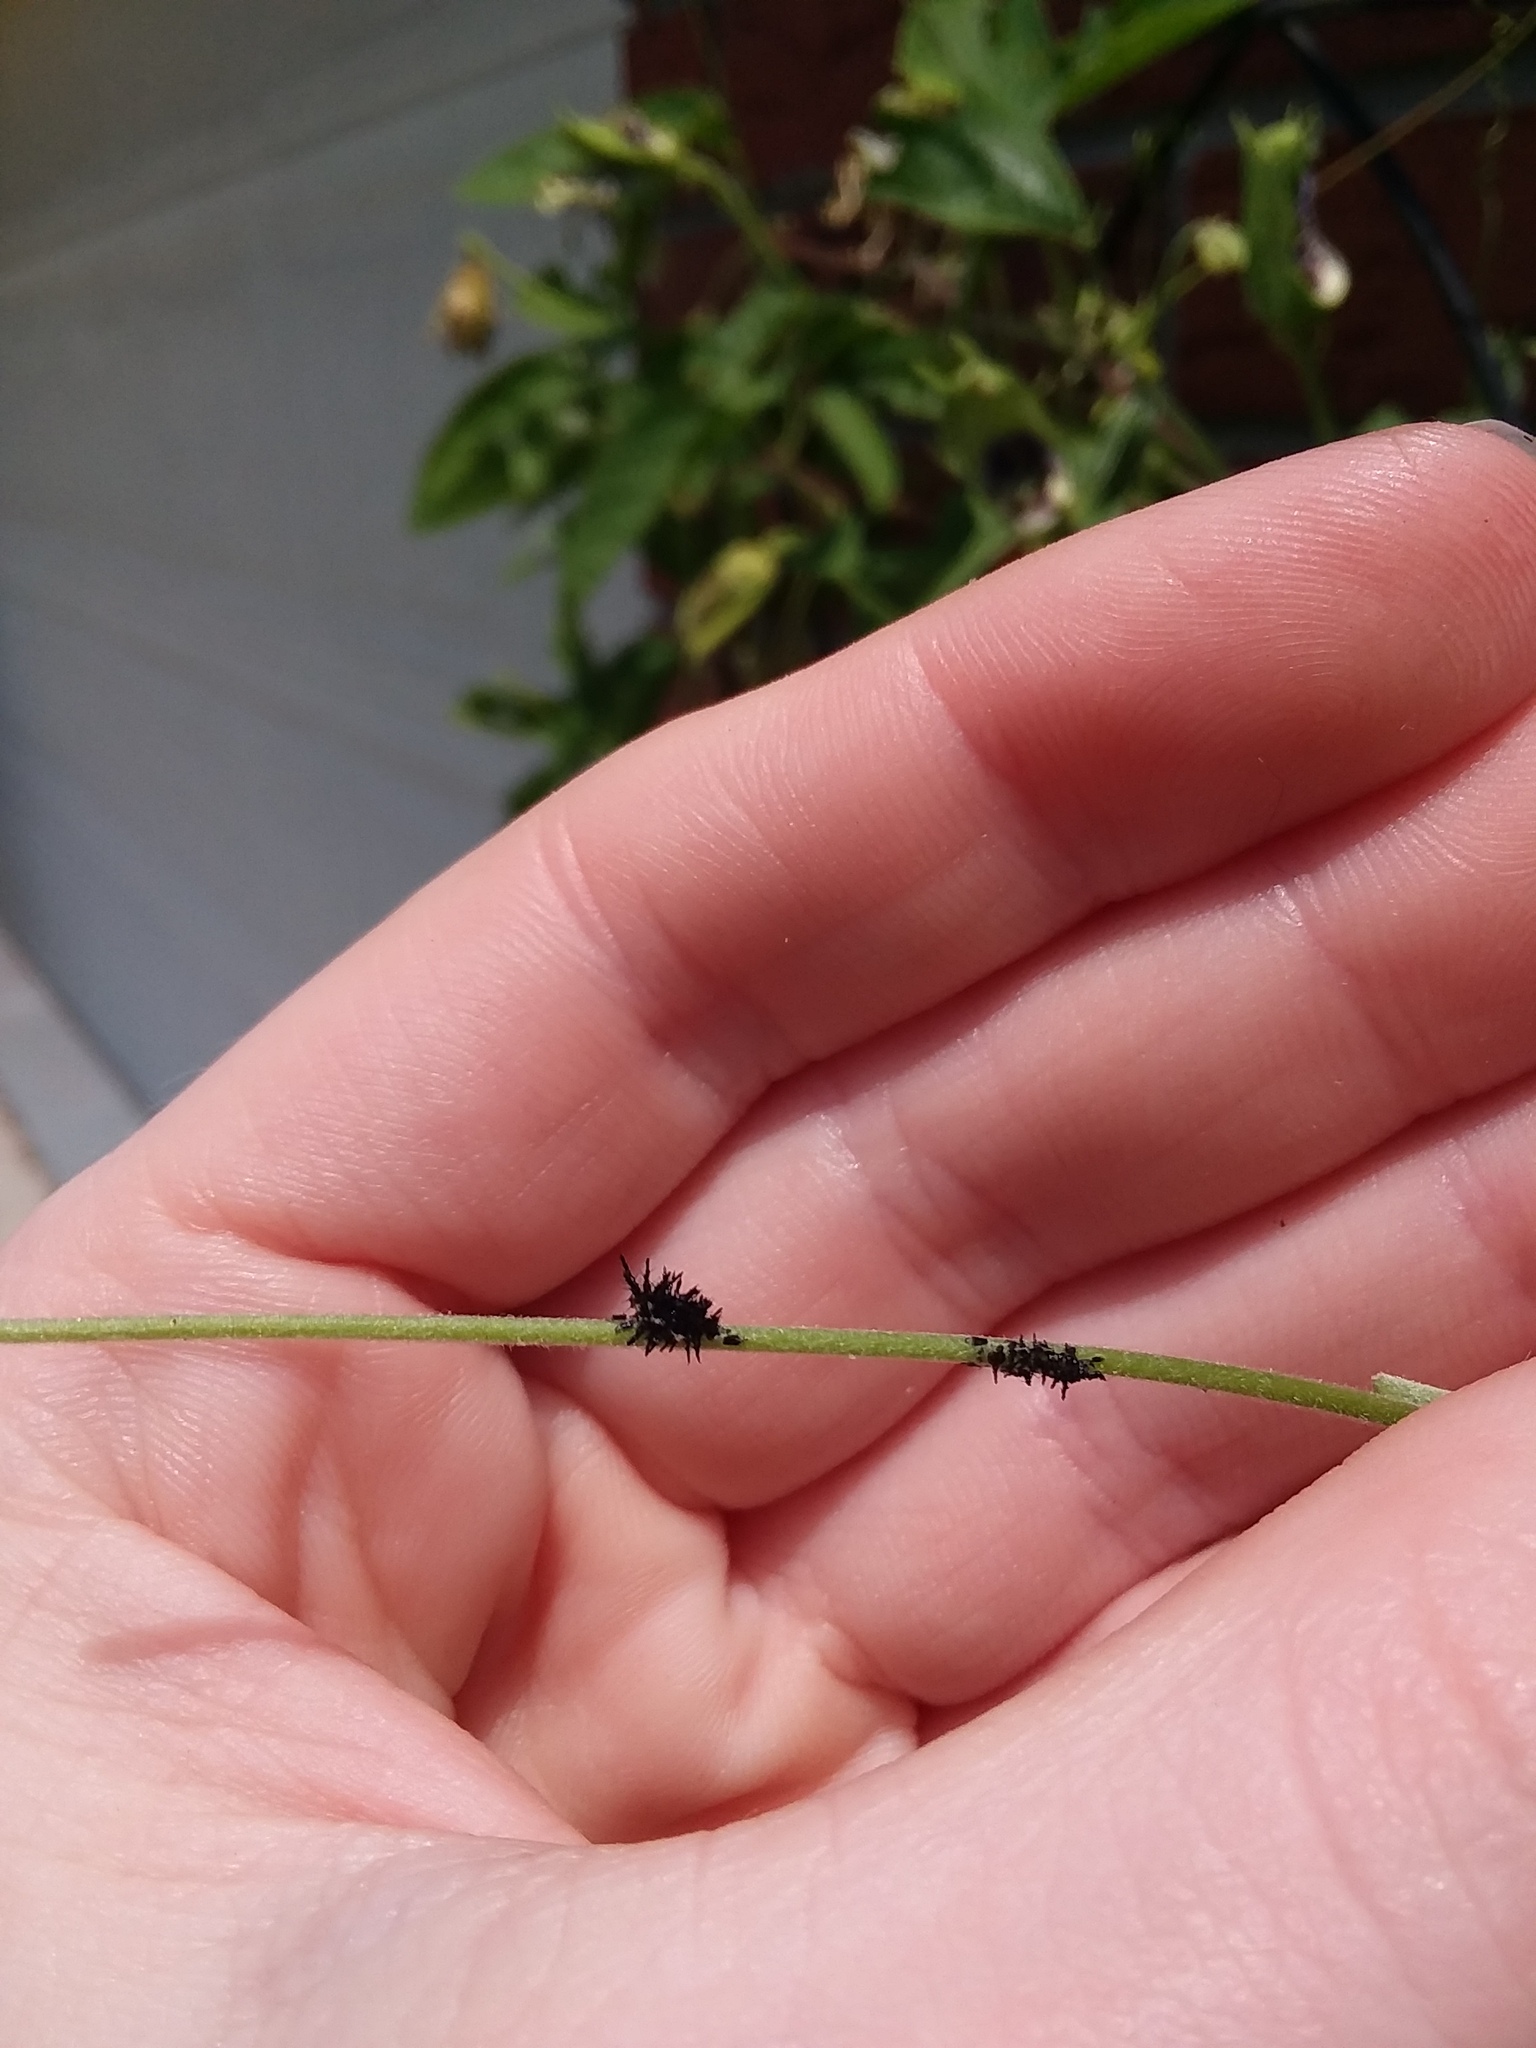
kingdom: Animalia
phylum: Arthropoda
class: Insecta
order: Lepidoptera
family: Nymphalidae
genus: Dione
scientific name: Dione vanillae
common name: Gulf fritillary
